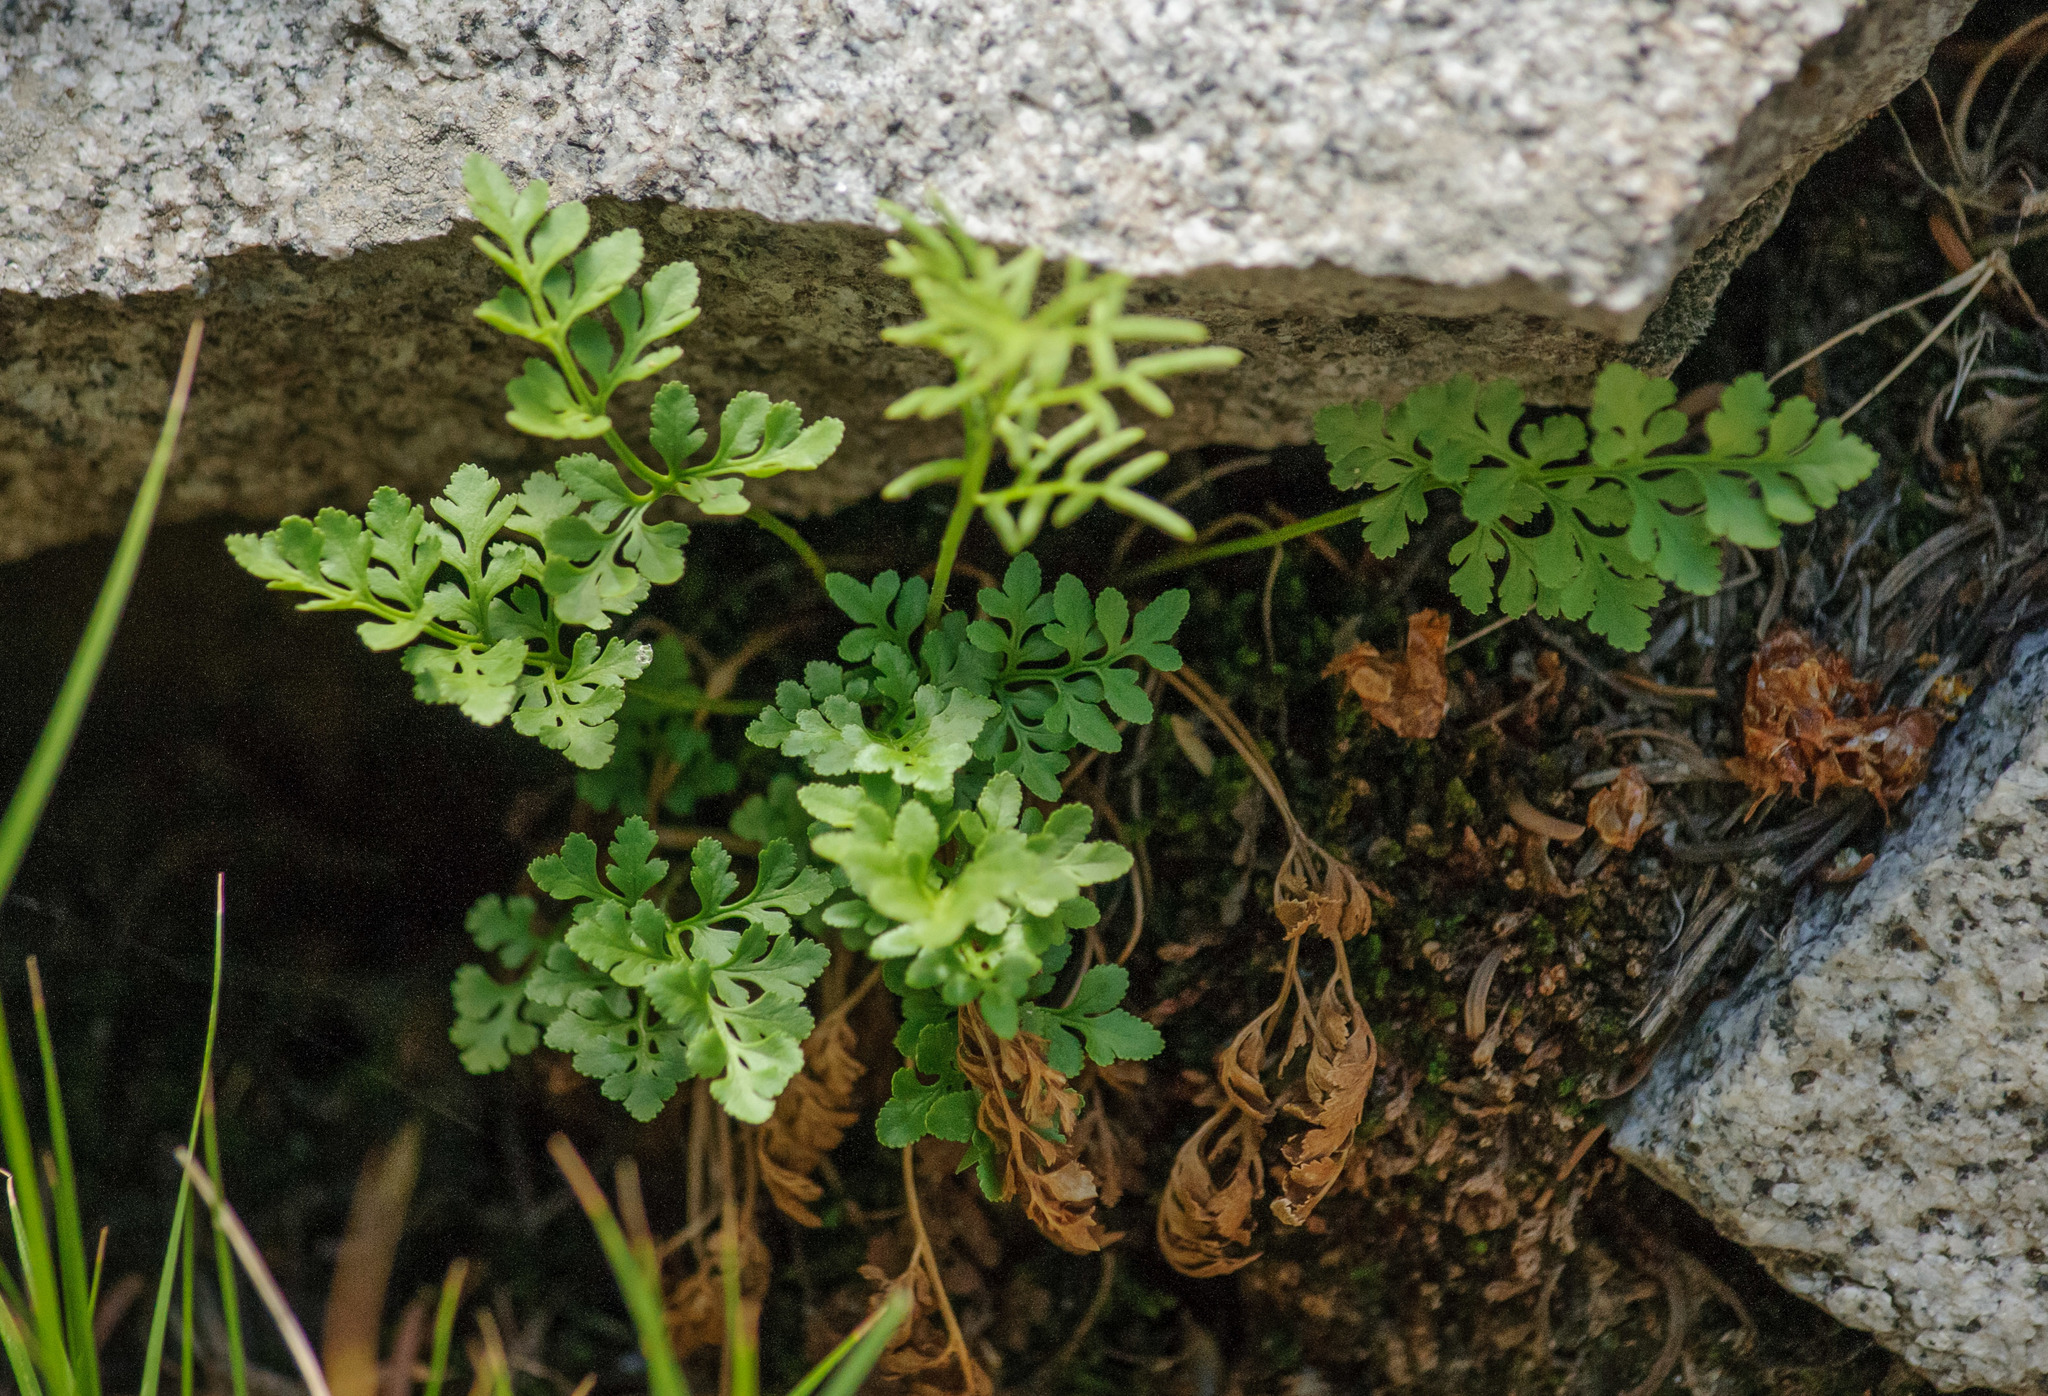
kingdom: Plantae
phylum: Tracheophyta
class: Polypodiopsida
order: Polypodiales
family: Pteridaceae
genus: Cryptogramma
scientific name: Cryptogramma acrostichoides
